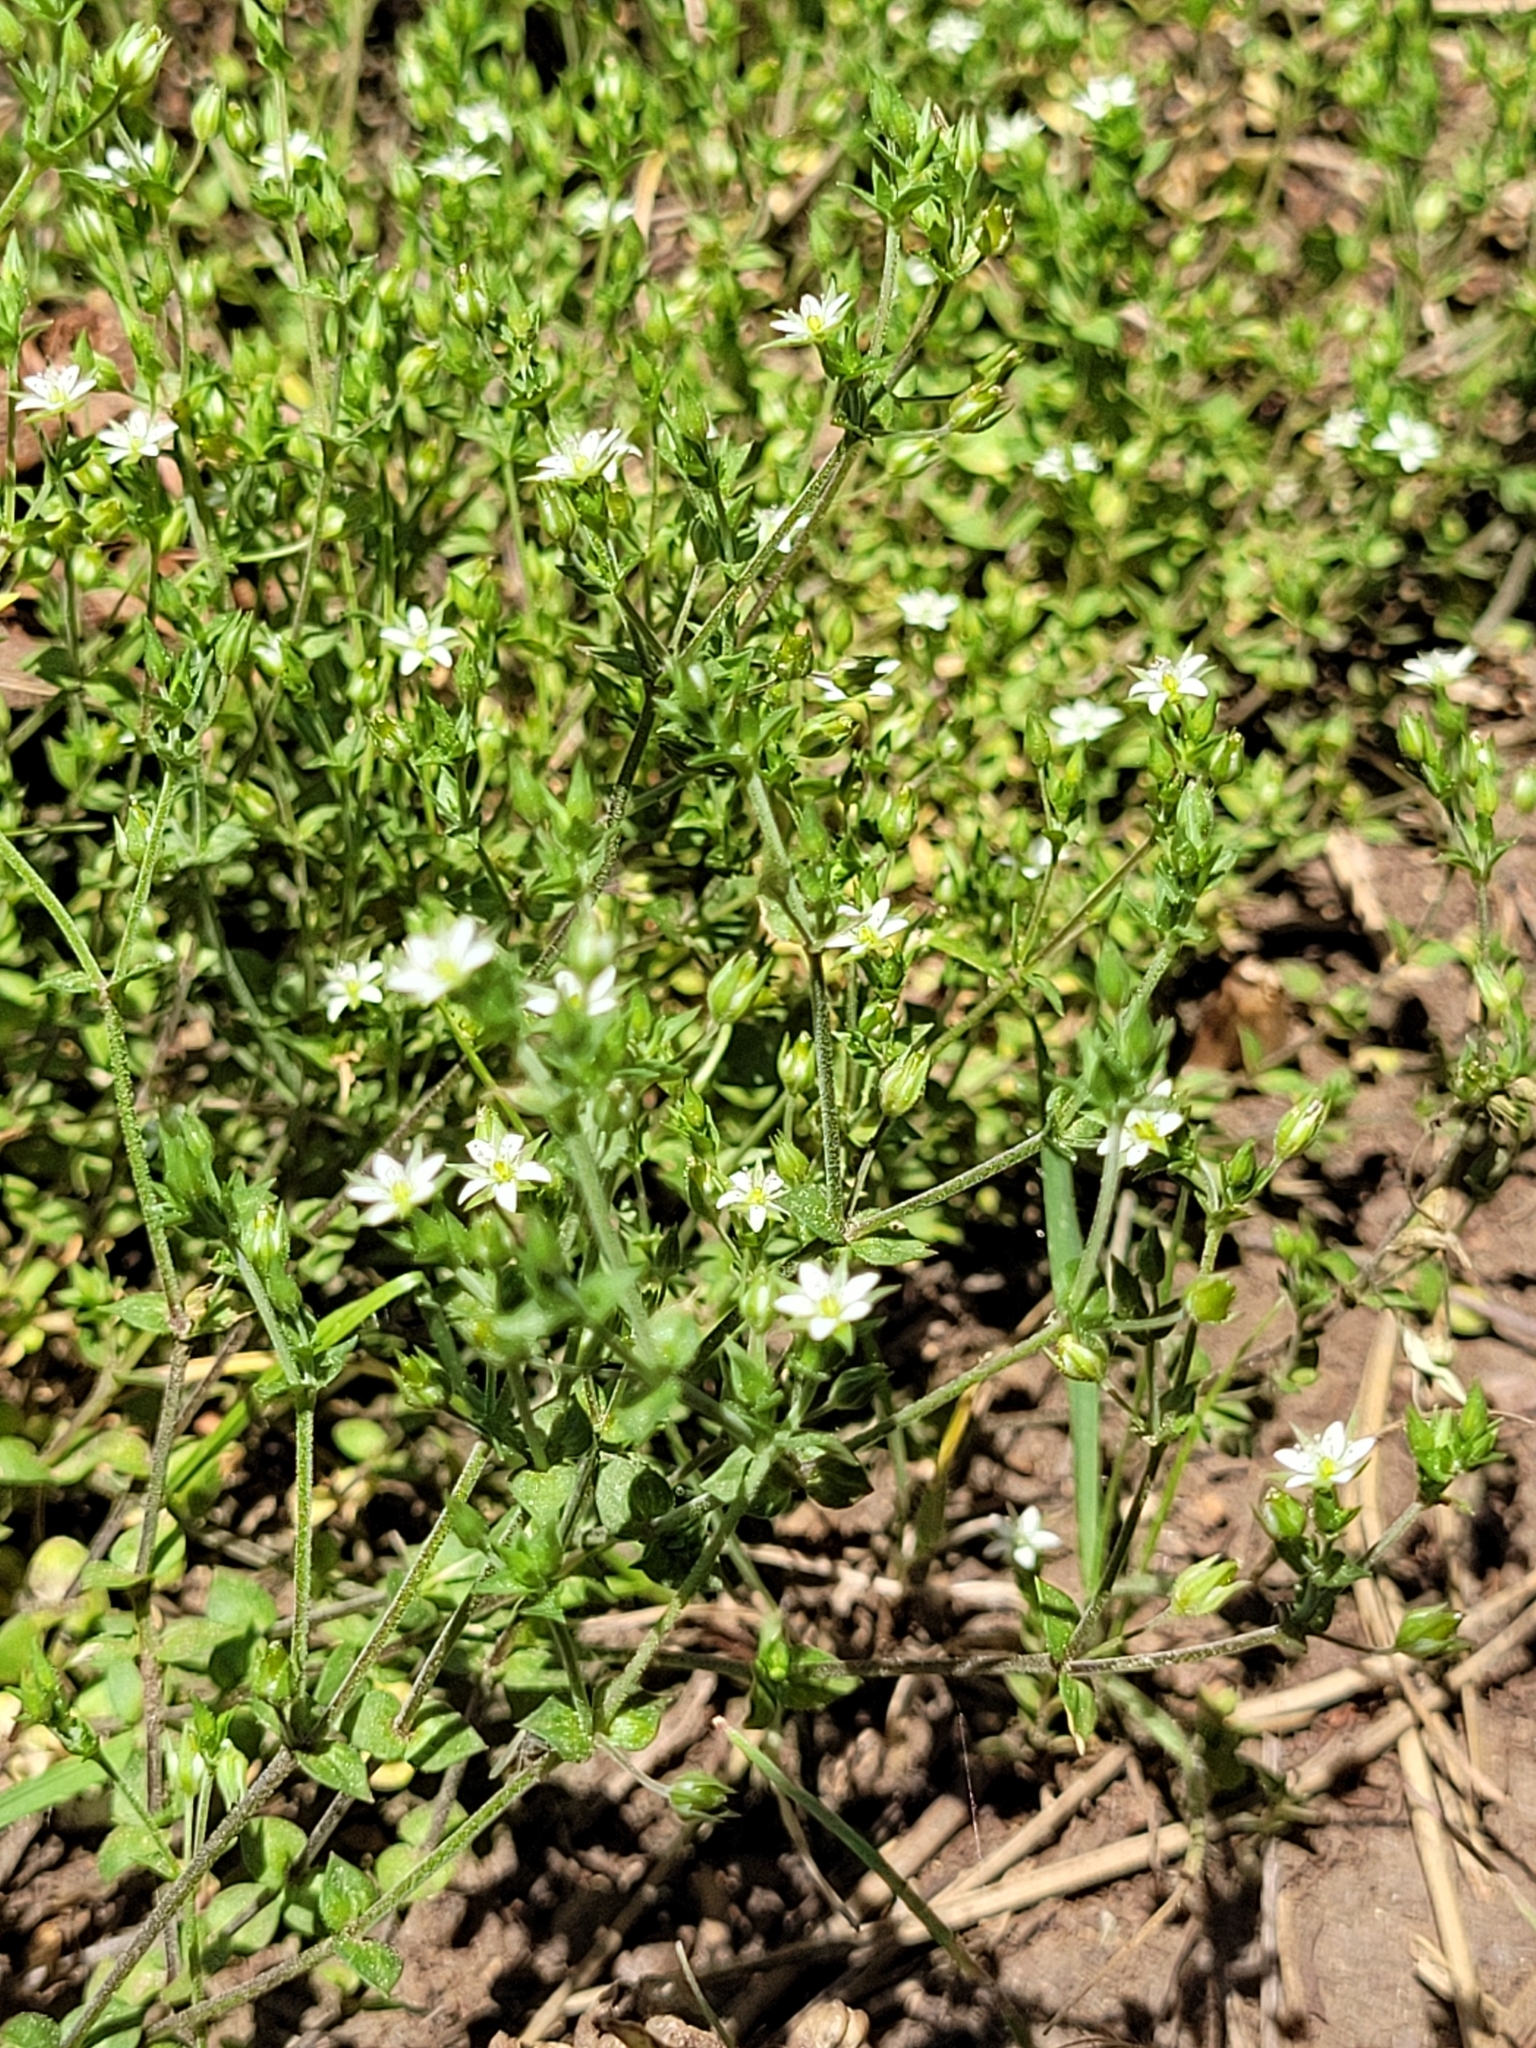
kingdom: Plantae
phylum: Tracheophyta
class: Magnoliopsida
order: Caryophyllales
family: Caryophyllaceae
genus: Arenaria
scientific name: Arenaria serpyllifolia
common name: Thyme-leaved sandwort
